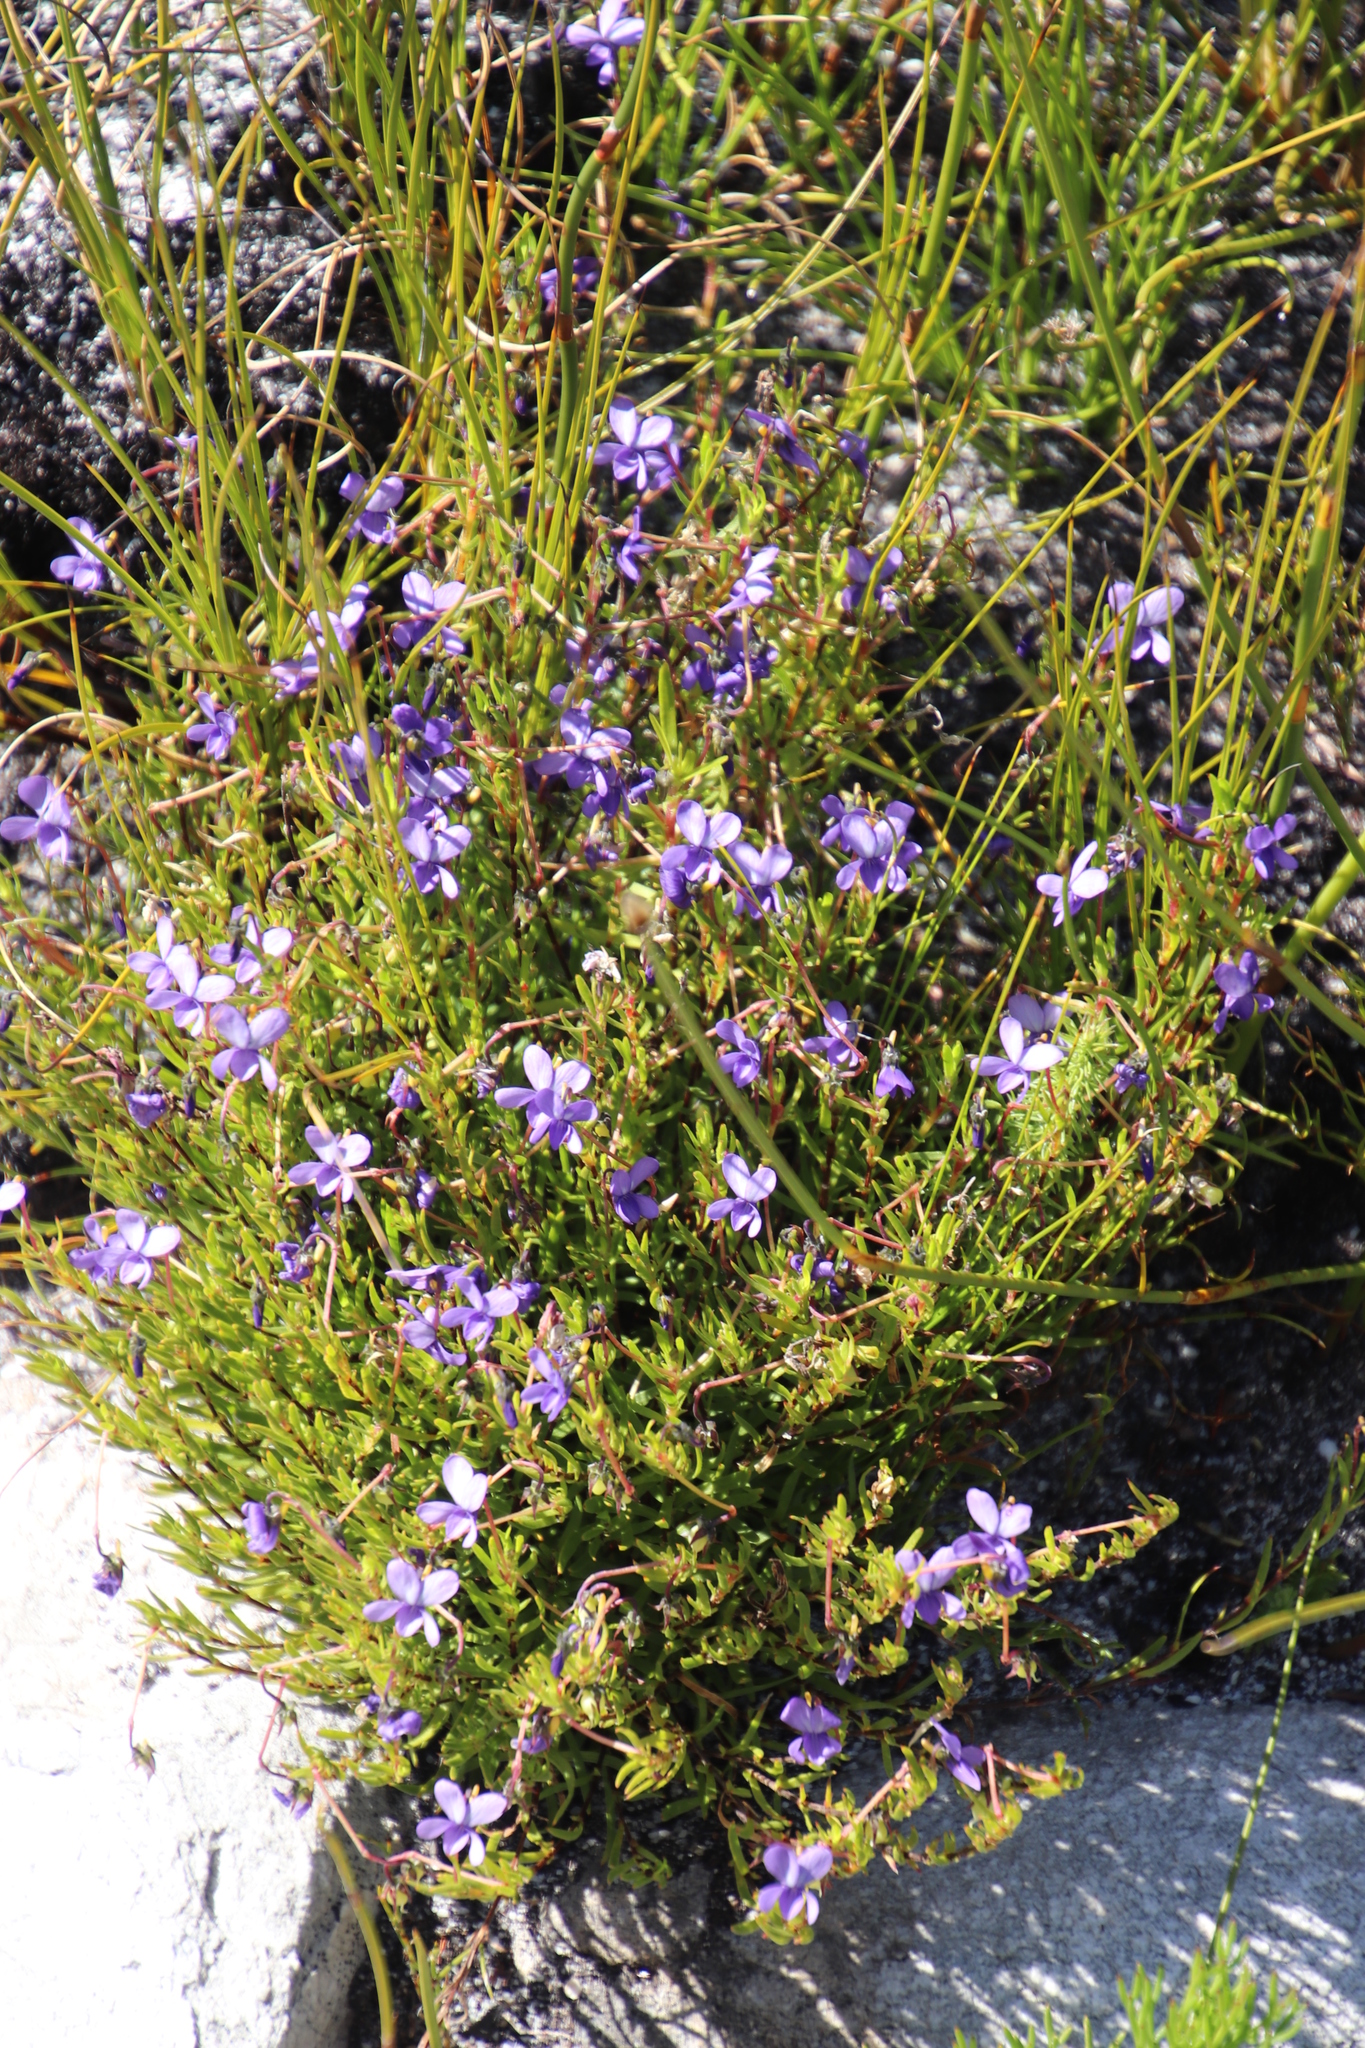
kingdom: Plantae
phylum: Tracheophyta
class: Magnoliopsida
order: Malpighiales
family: Violaceae
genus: Viola
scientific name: Viola decumbens
